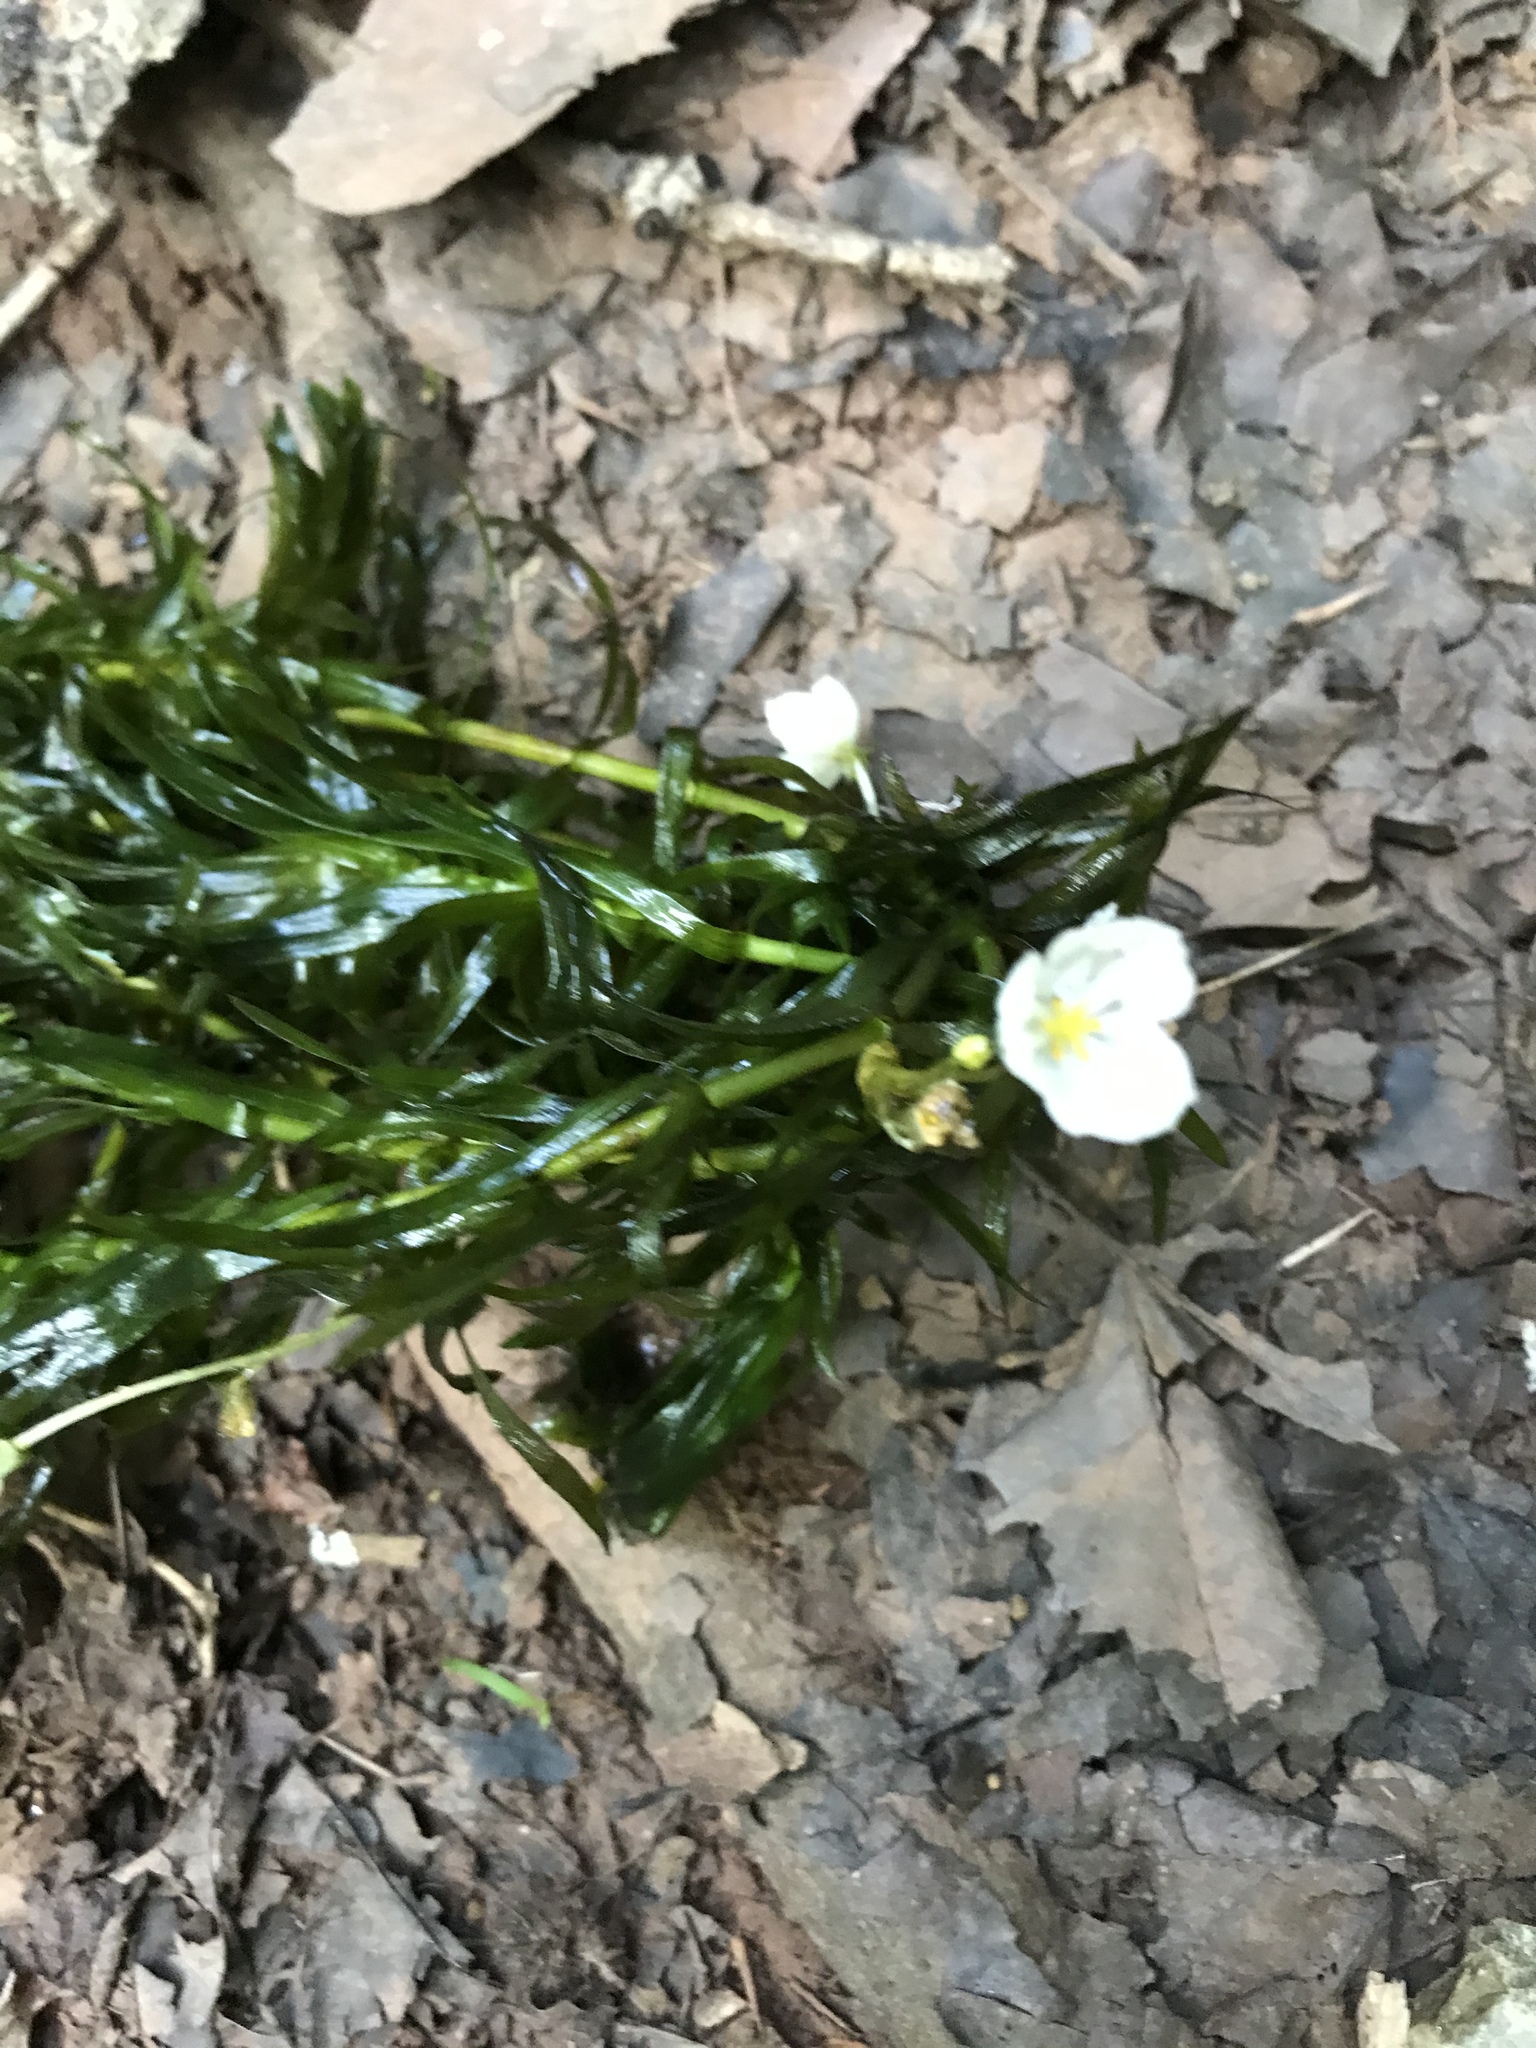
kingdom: Plantae
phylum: Tracheophyta
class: Liliopsida
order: Alismatales
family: Hydrocharitaceae
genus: Elodea
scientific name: Elodea densa
